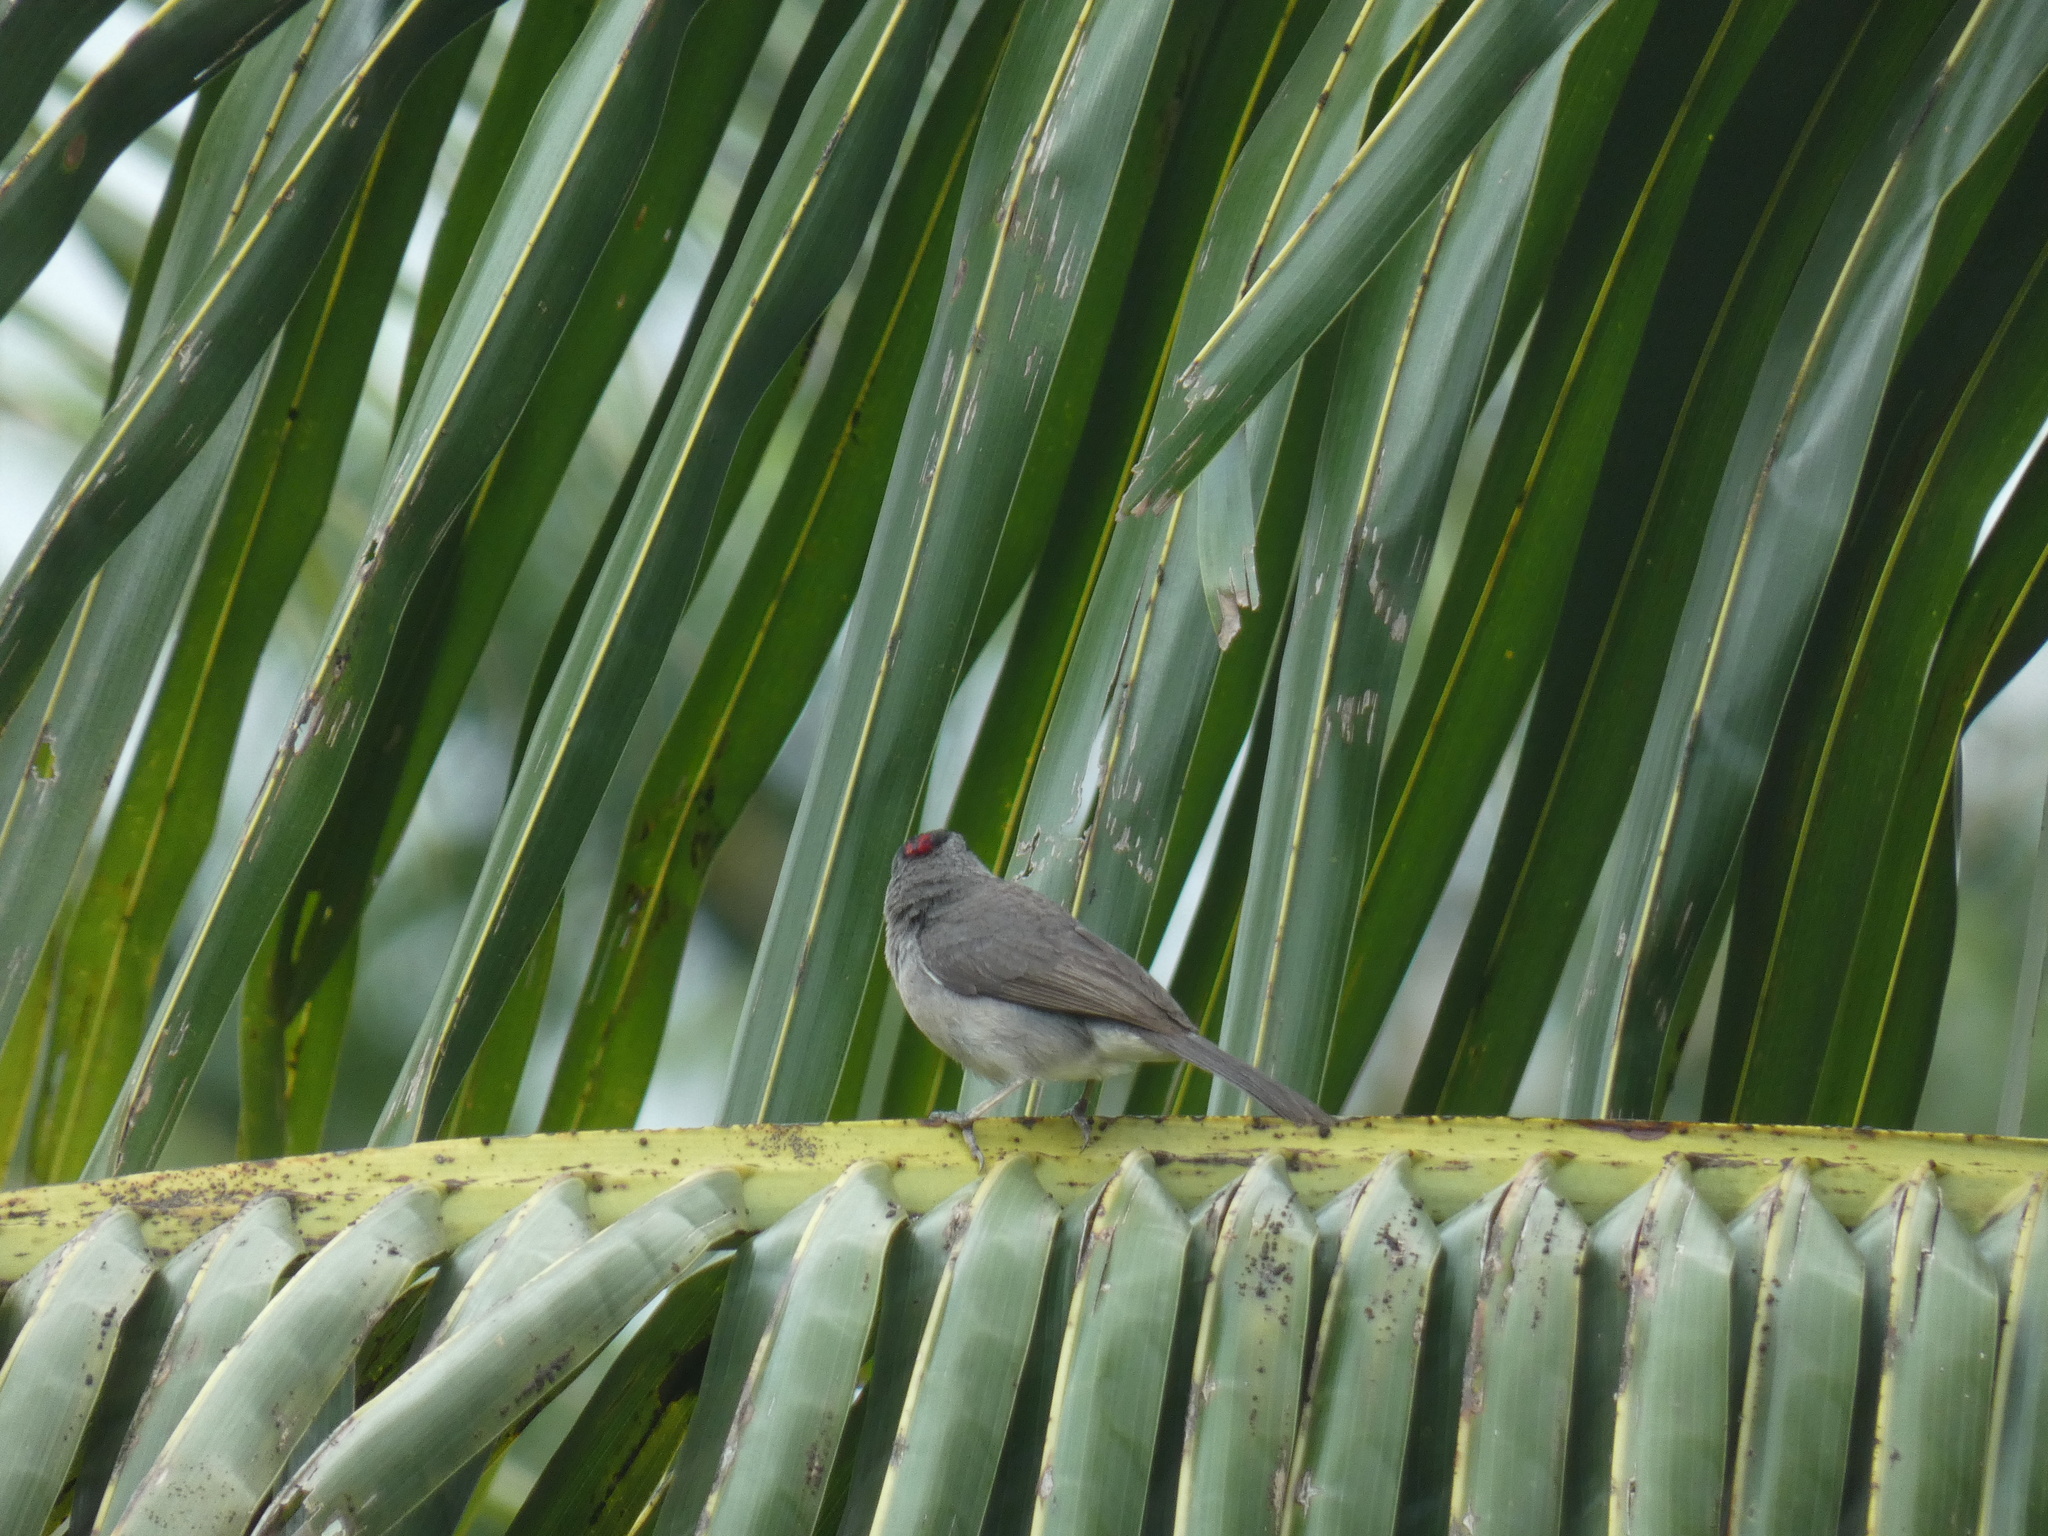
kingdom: Animalia
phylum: Chordata
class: Aves
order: Passeriformes
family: Thraupidae
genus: Coryphospingus
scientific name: Coryphospingus pileatus
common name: Grey pileated finch
